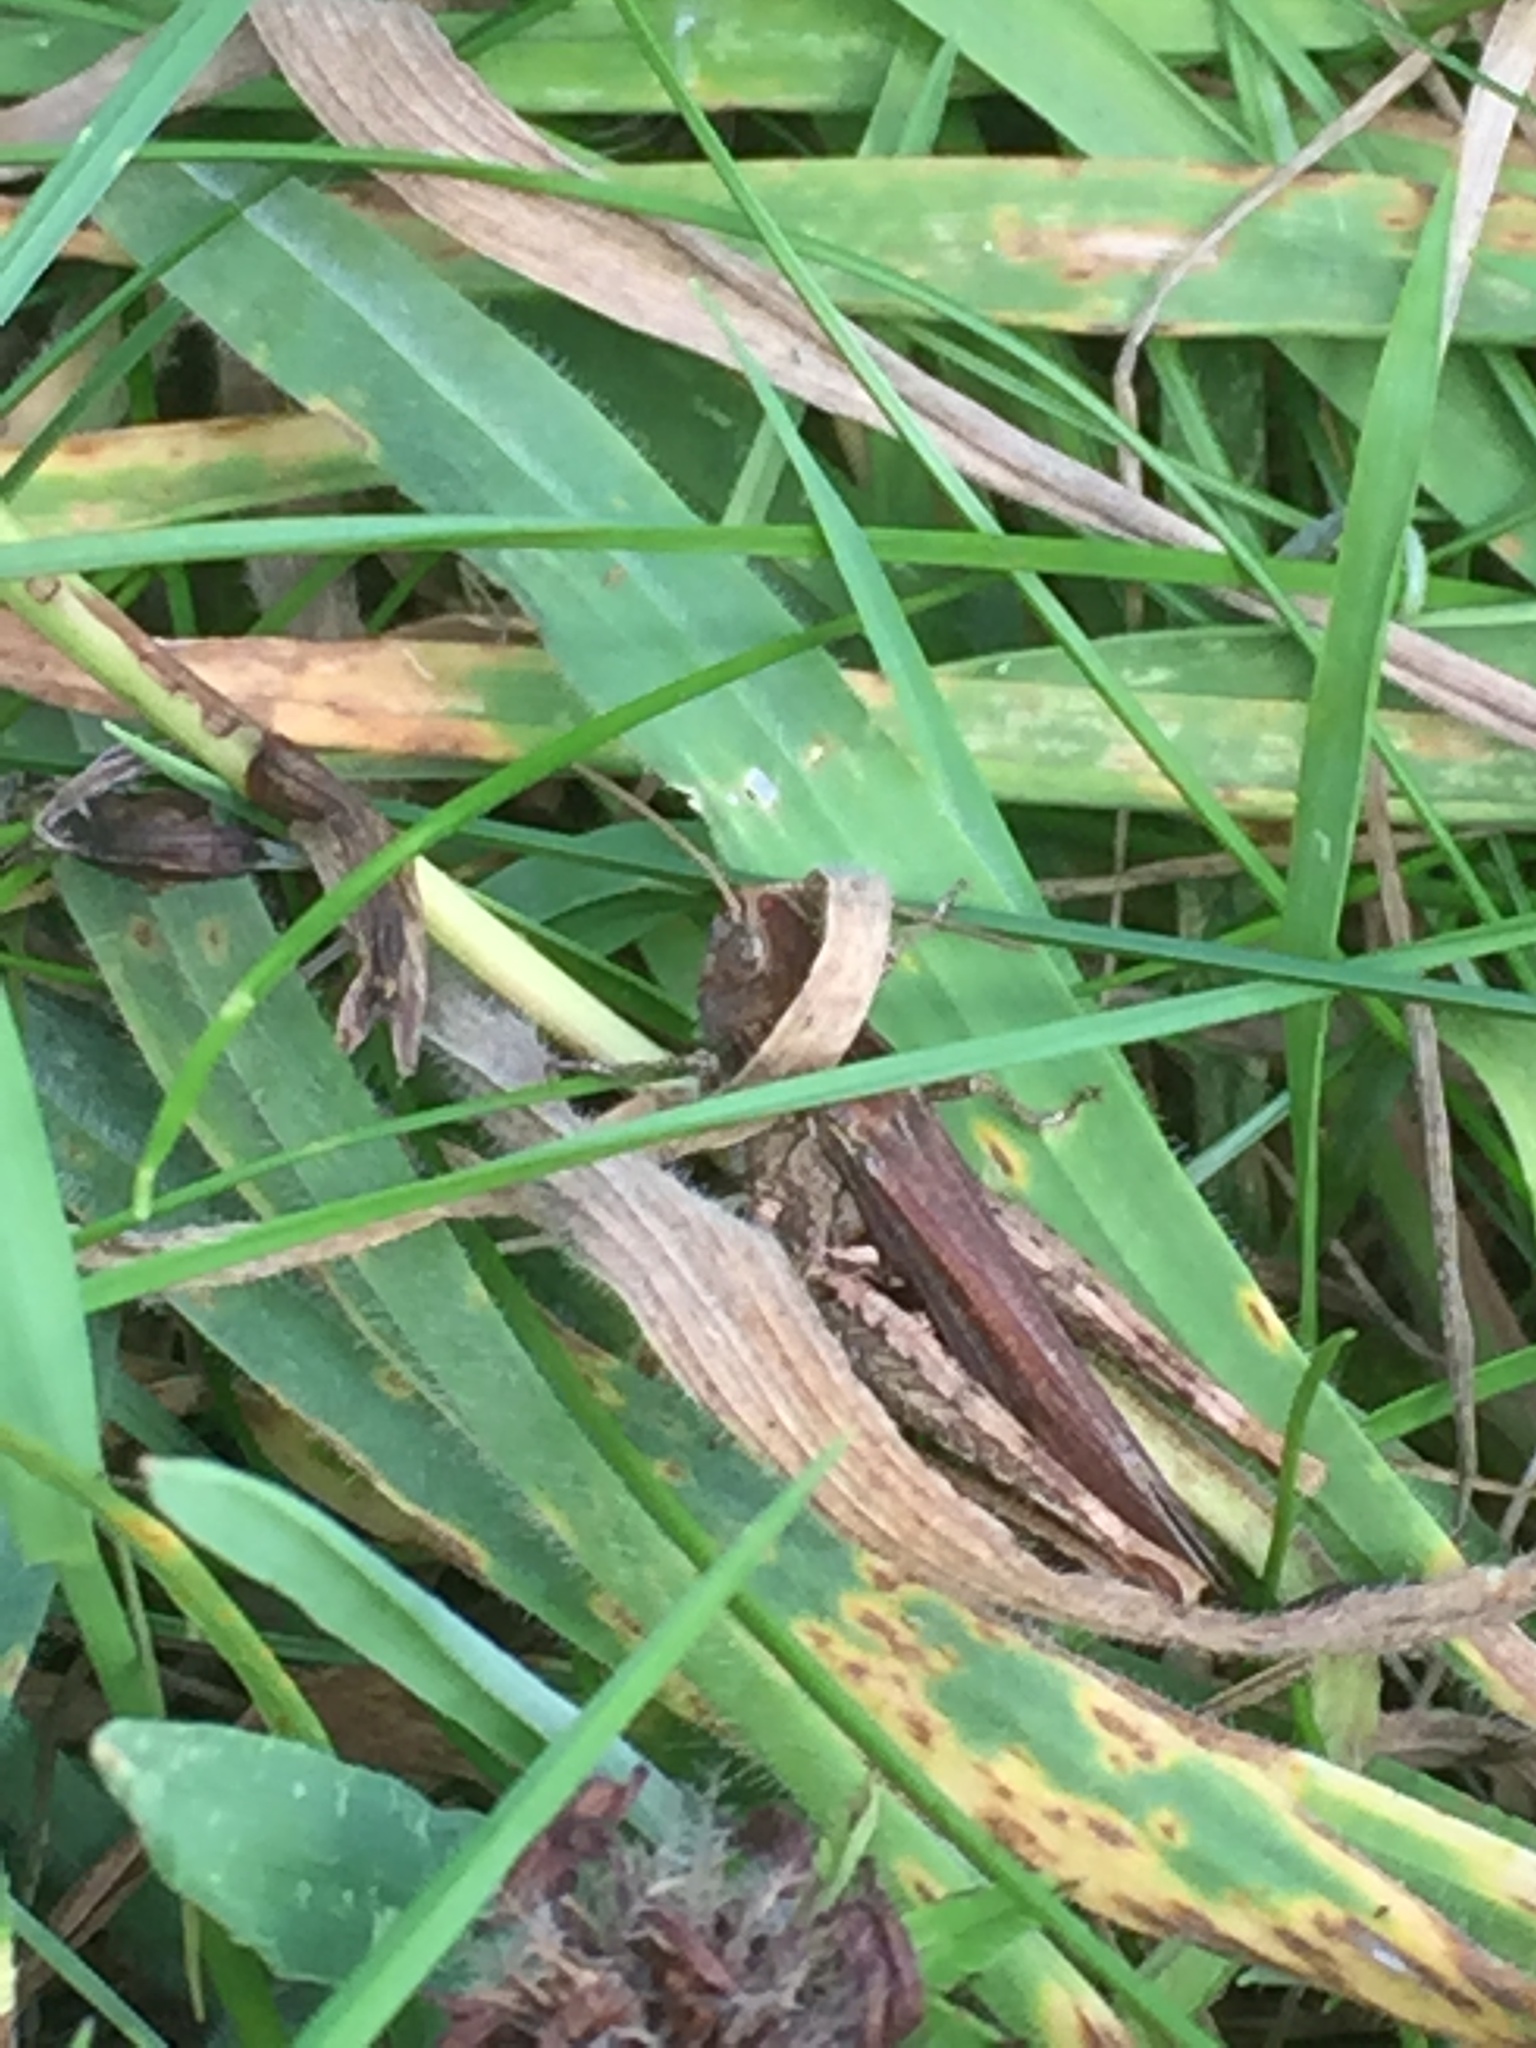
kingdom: Animalia
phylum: Arthropoda
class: Insecta
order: Orthoptera
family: Acrididae
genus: Chorthippus
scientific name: Chorthippus brunneus
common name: Field grasshopper
